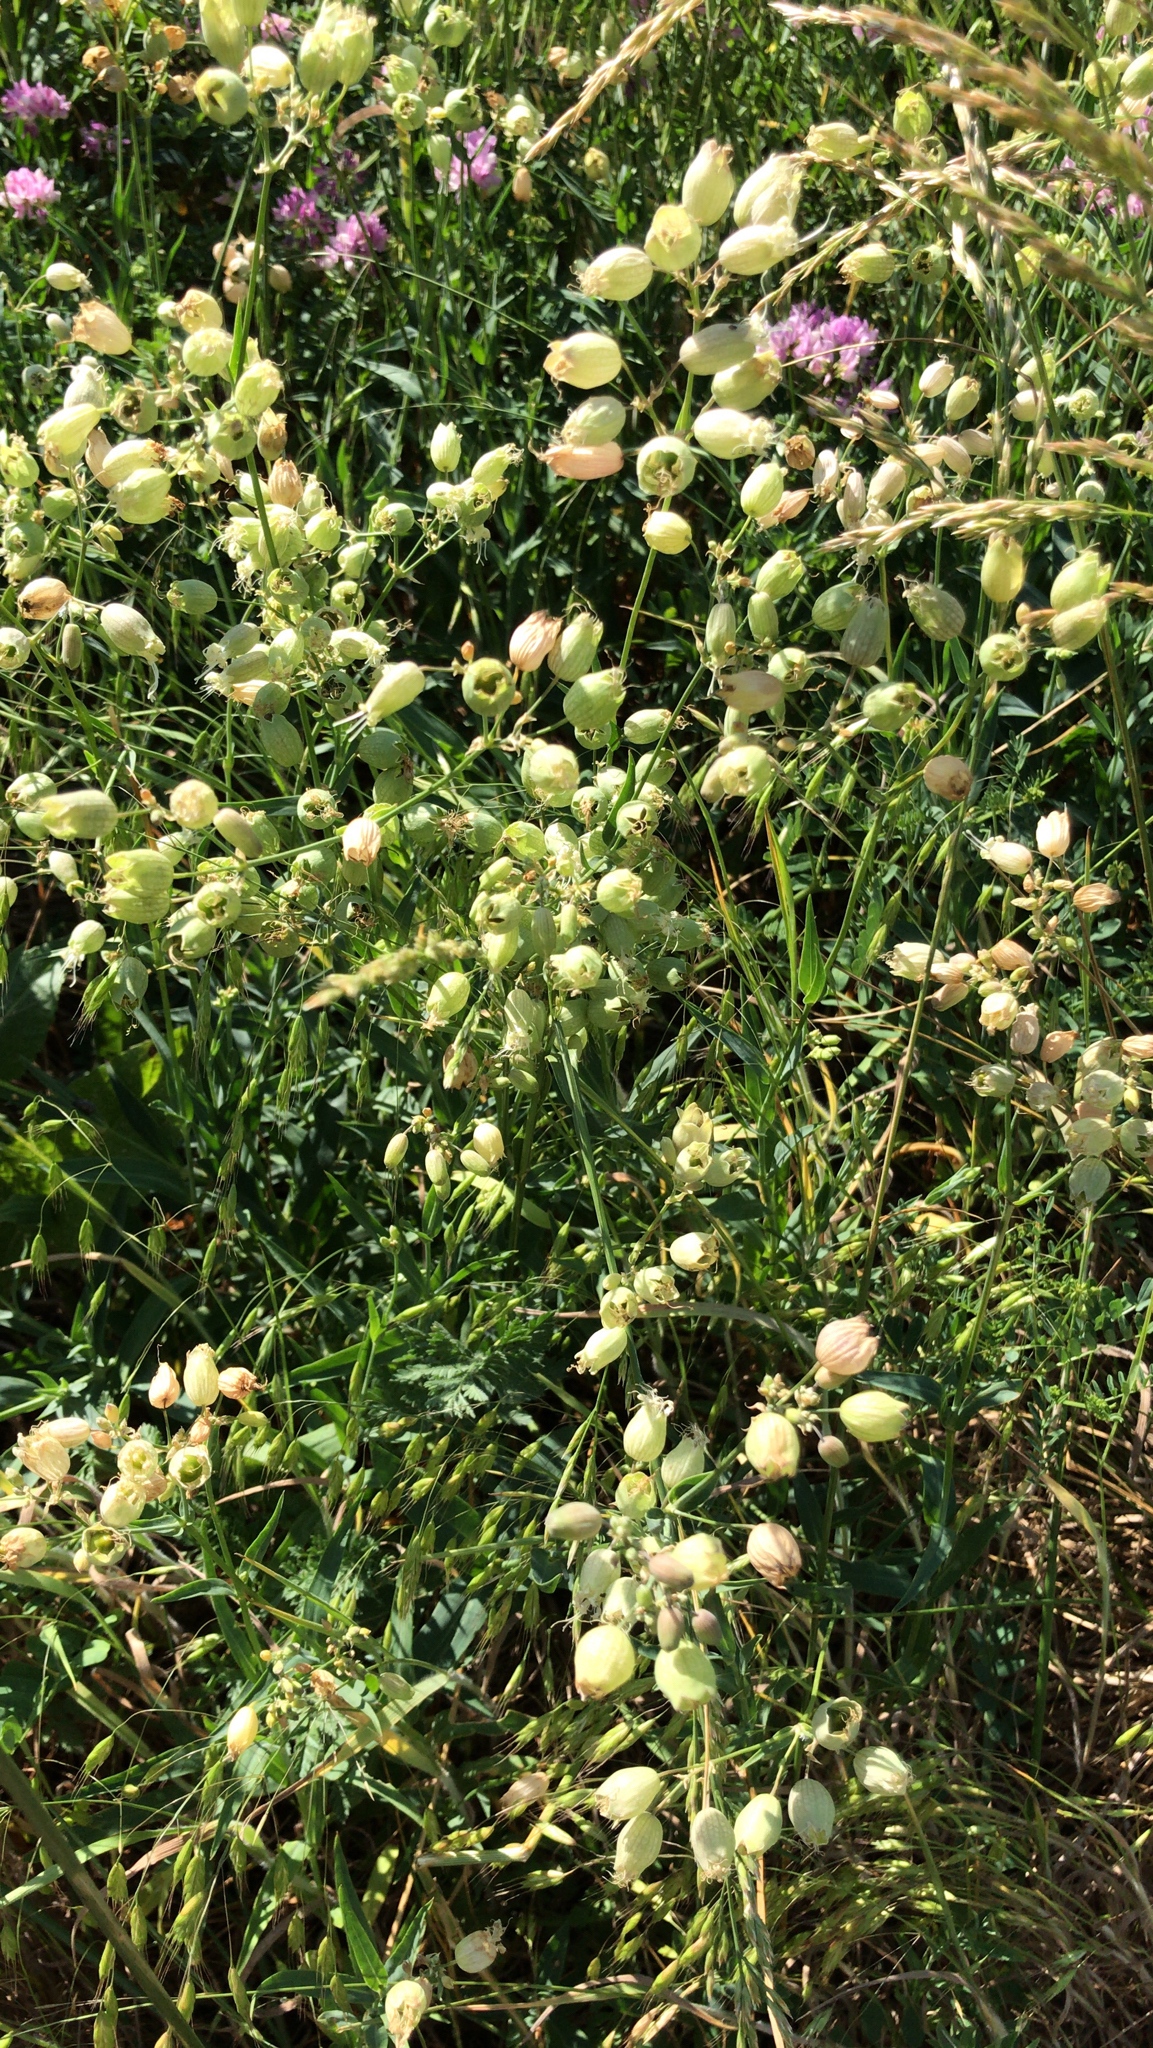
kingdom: Plantae
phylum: Tracheophyta
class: Magnoliopsida
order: Caryophyllales
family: Caryophyllaceae
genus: Silene
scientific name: Silene vulgaris
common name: Bladder campion
